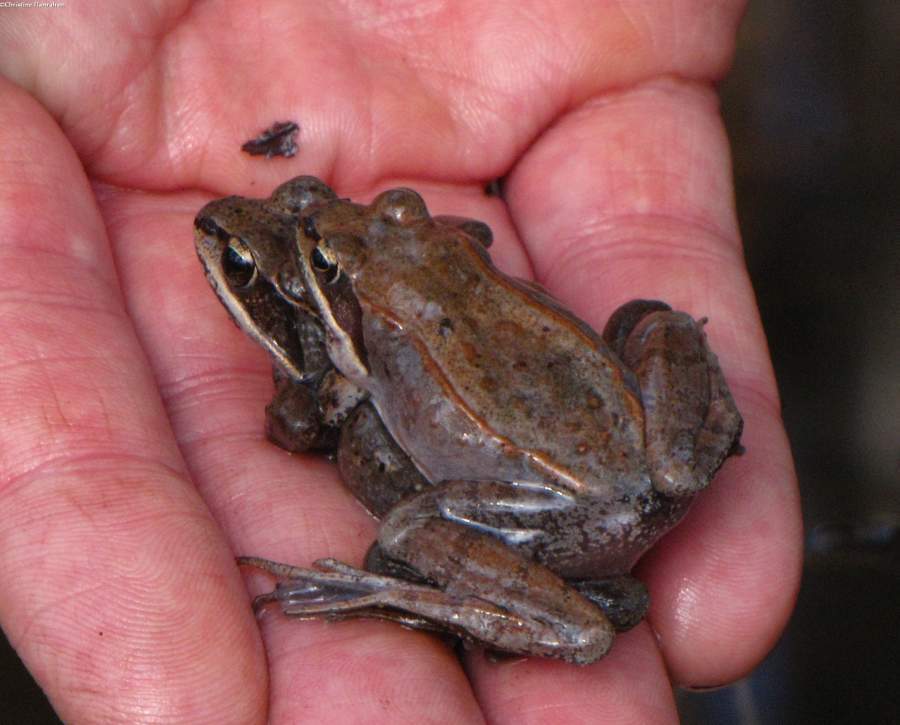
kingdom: Animalia
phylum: Chordata
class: Amphibia
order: Anura
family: Ranidae
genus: Lithobates
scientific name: Lithobates sylvaticus
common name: Wood frog
